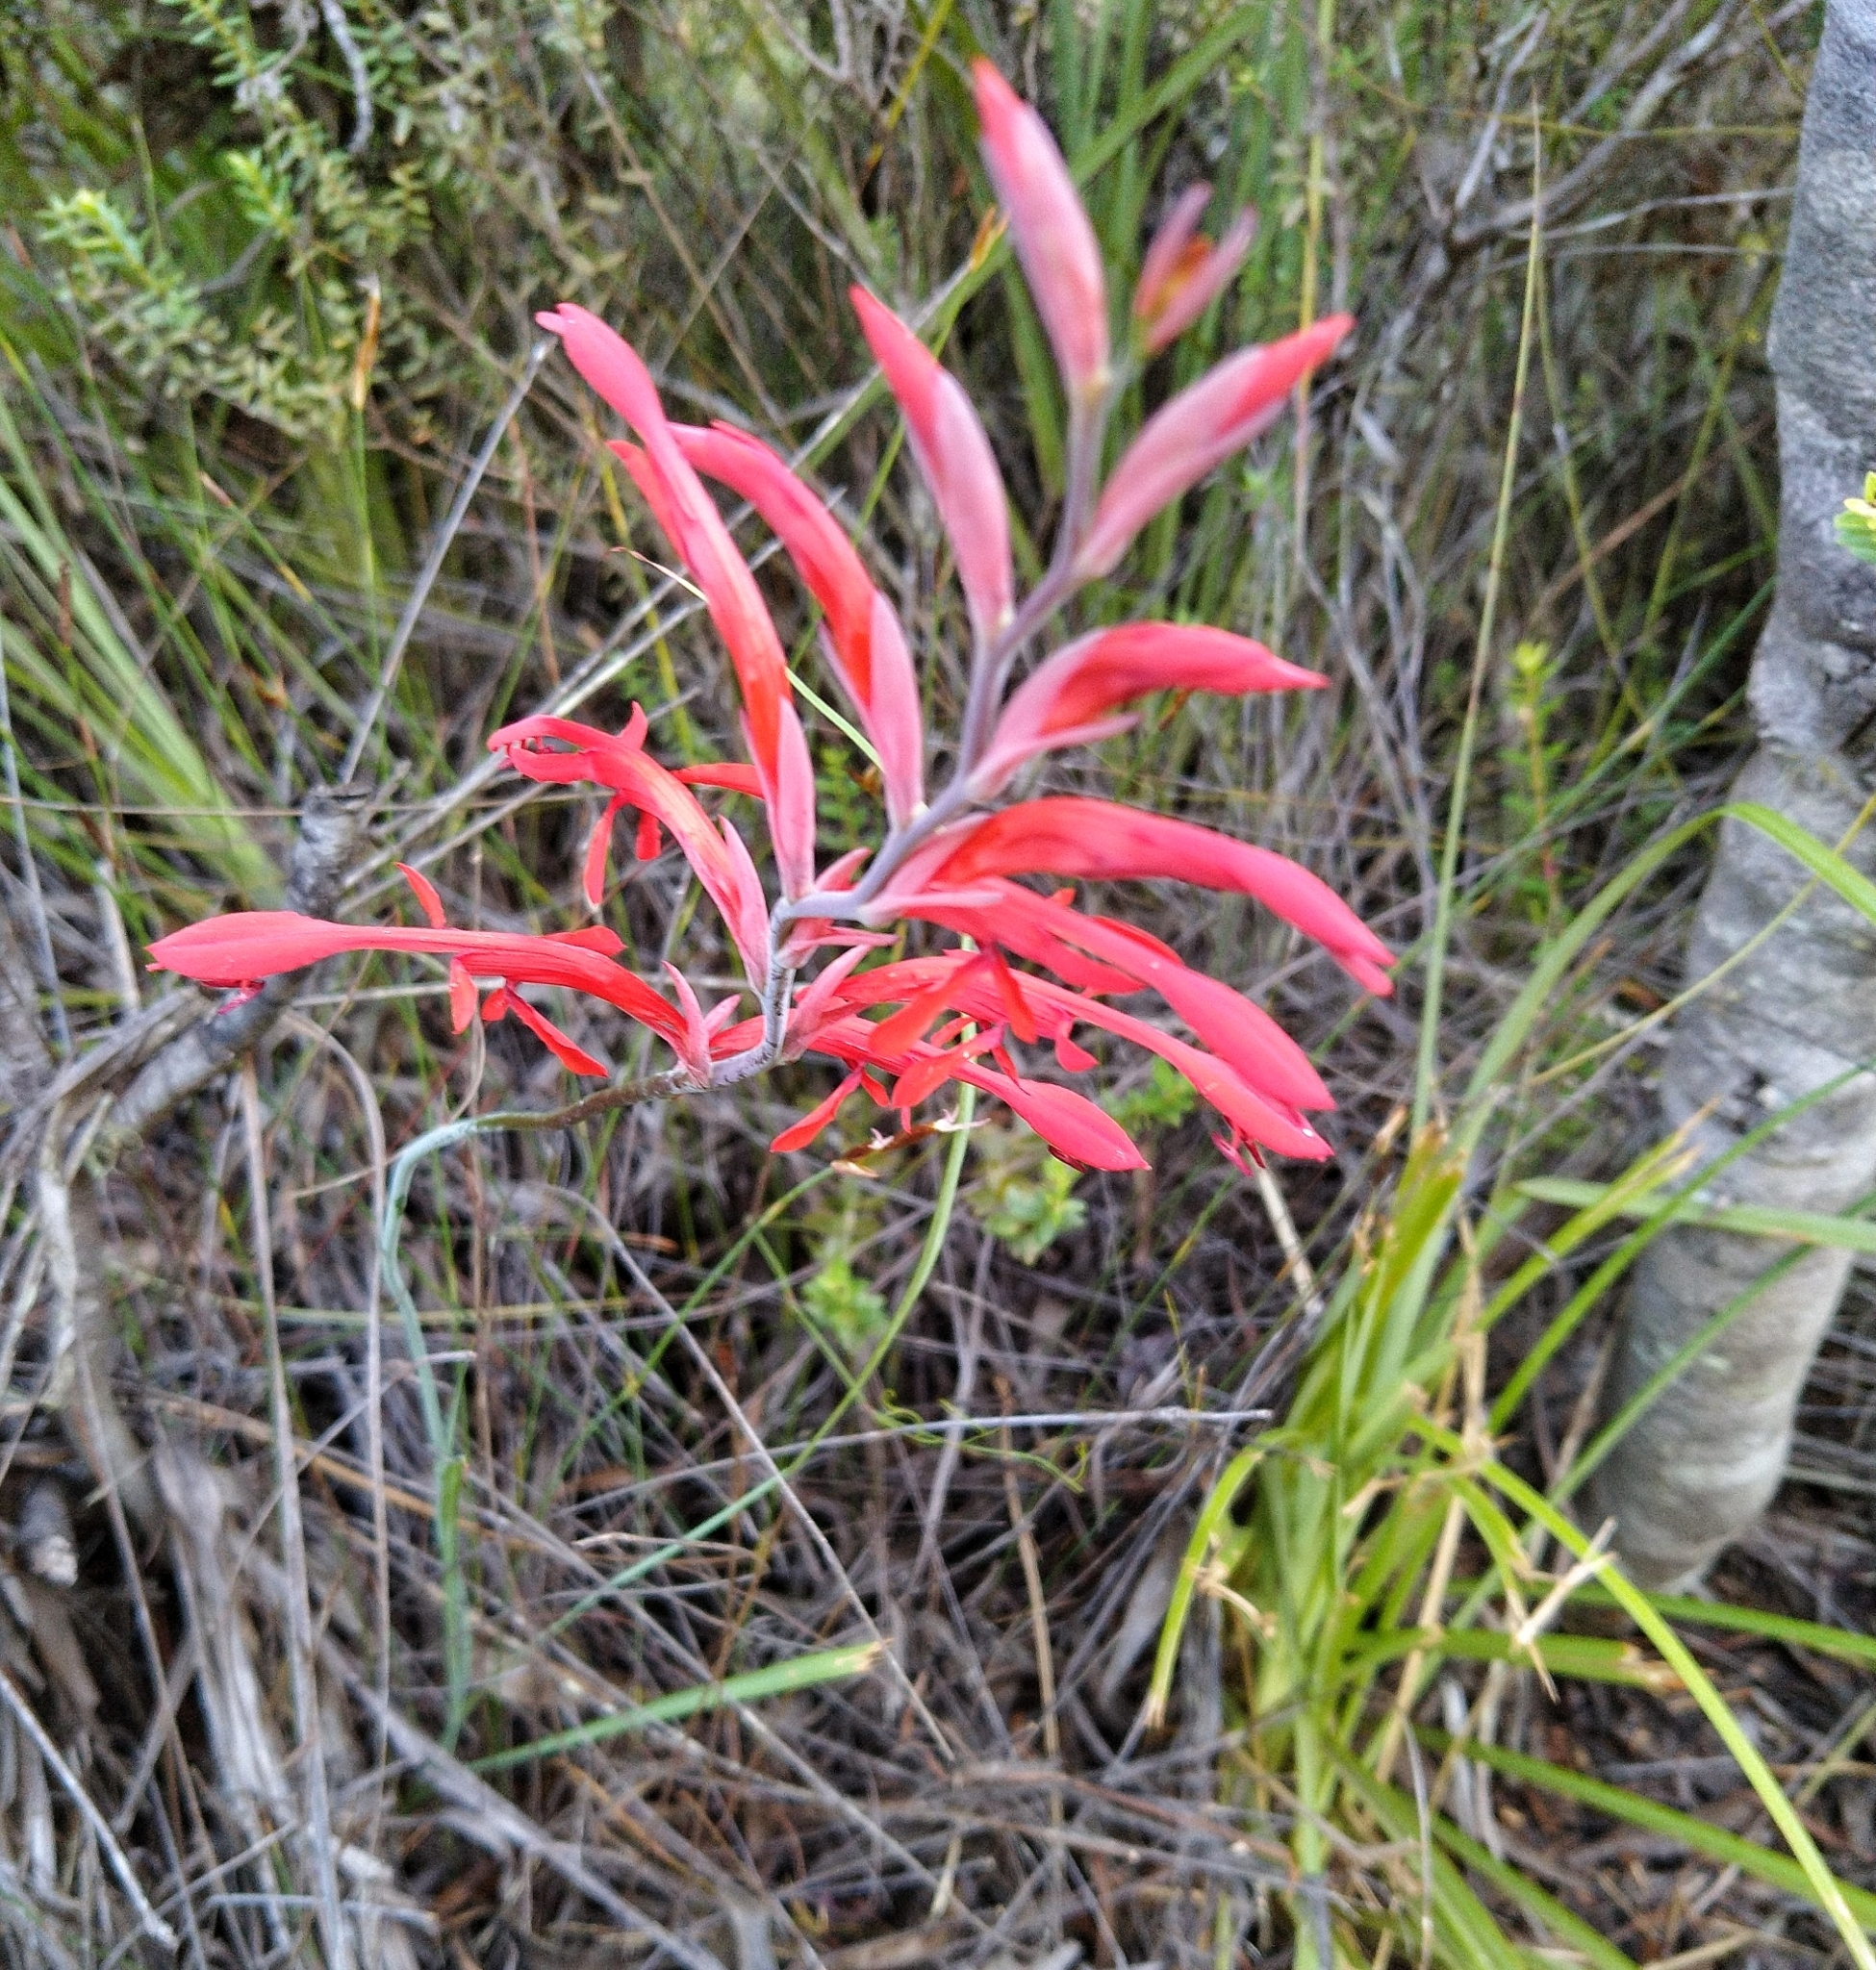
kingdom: Plantae
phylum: Tracheophyta
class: Liliopsida
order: Asparagales
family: Iridaceae
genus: Tritoniopsis
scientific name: Tritoniopsis caffra
